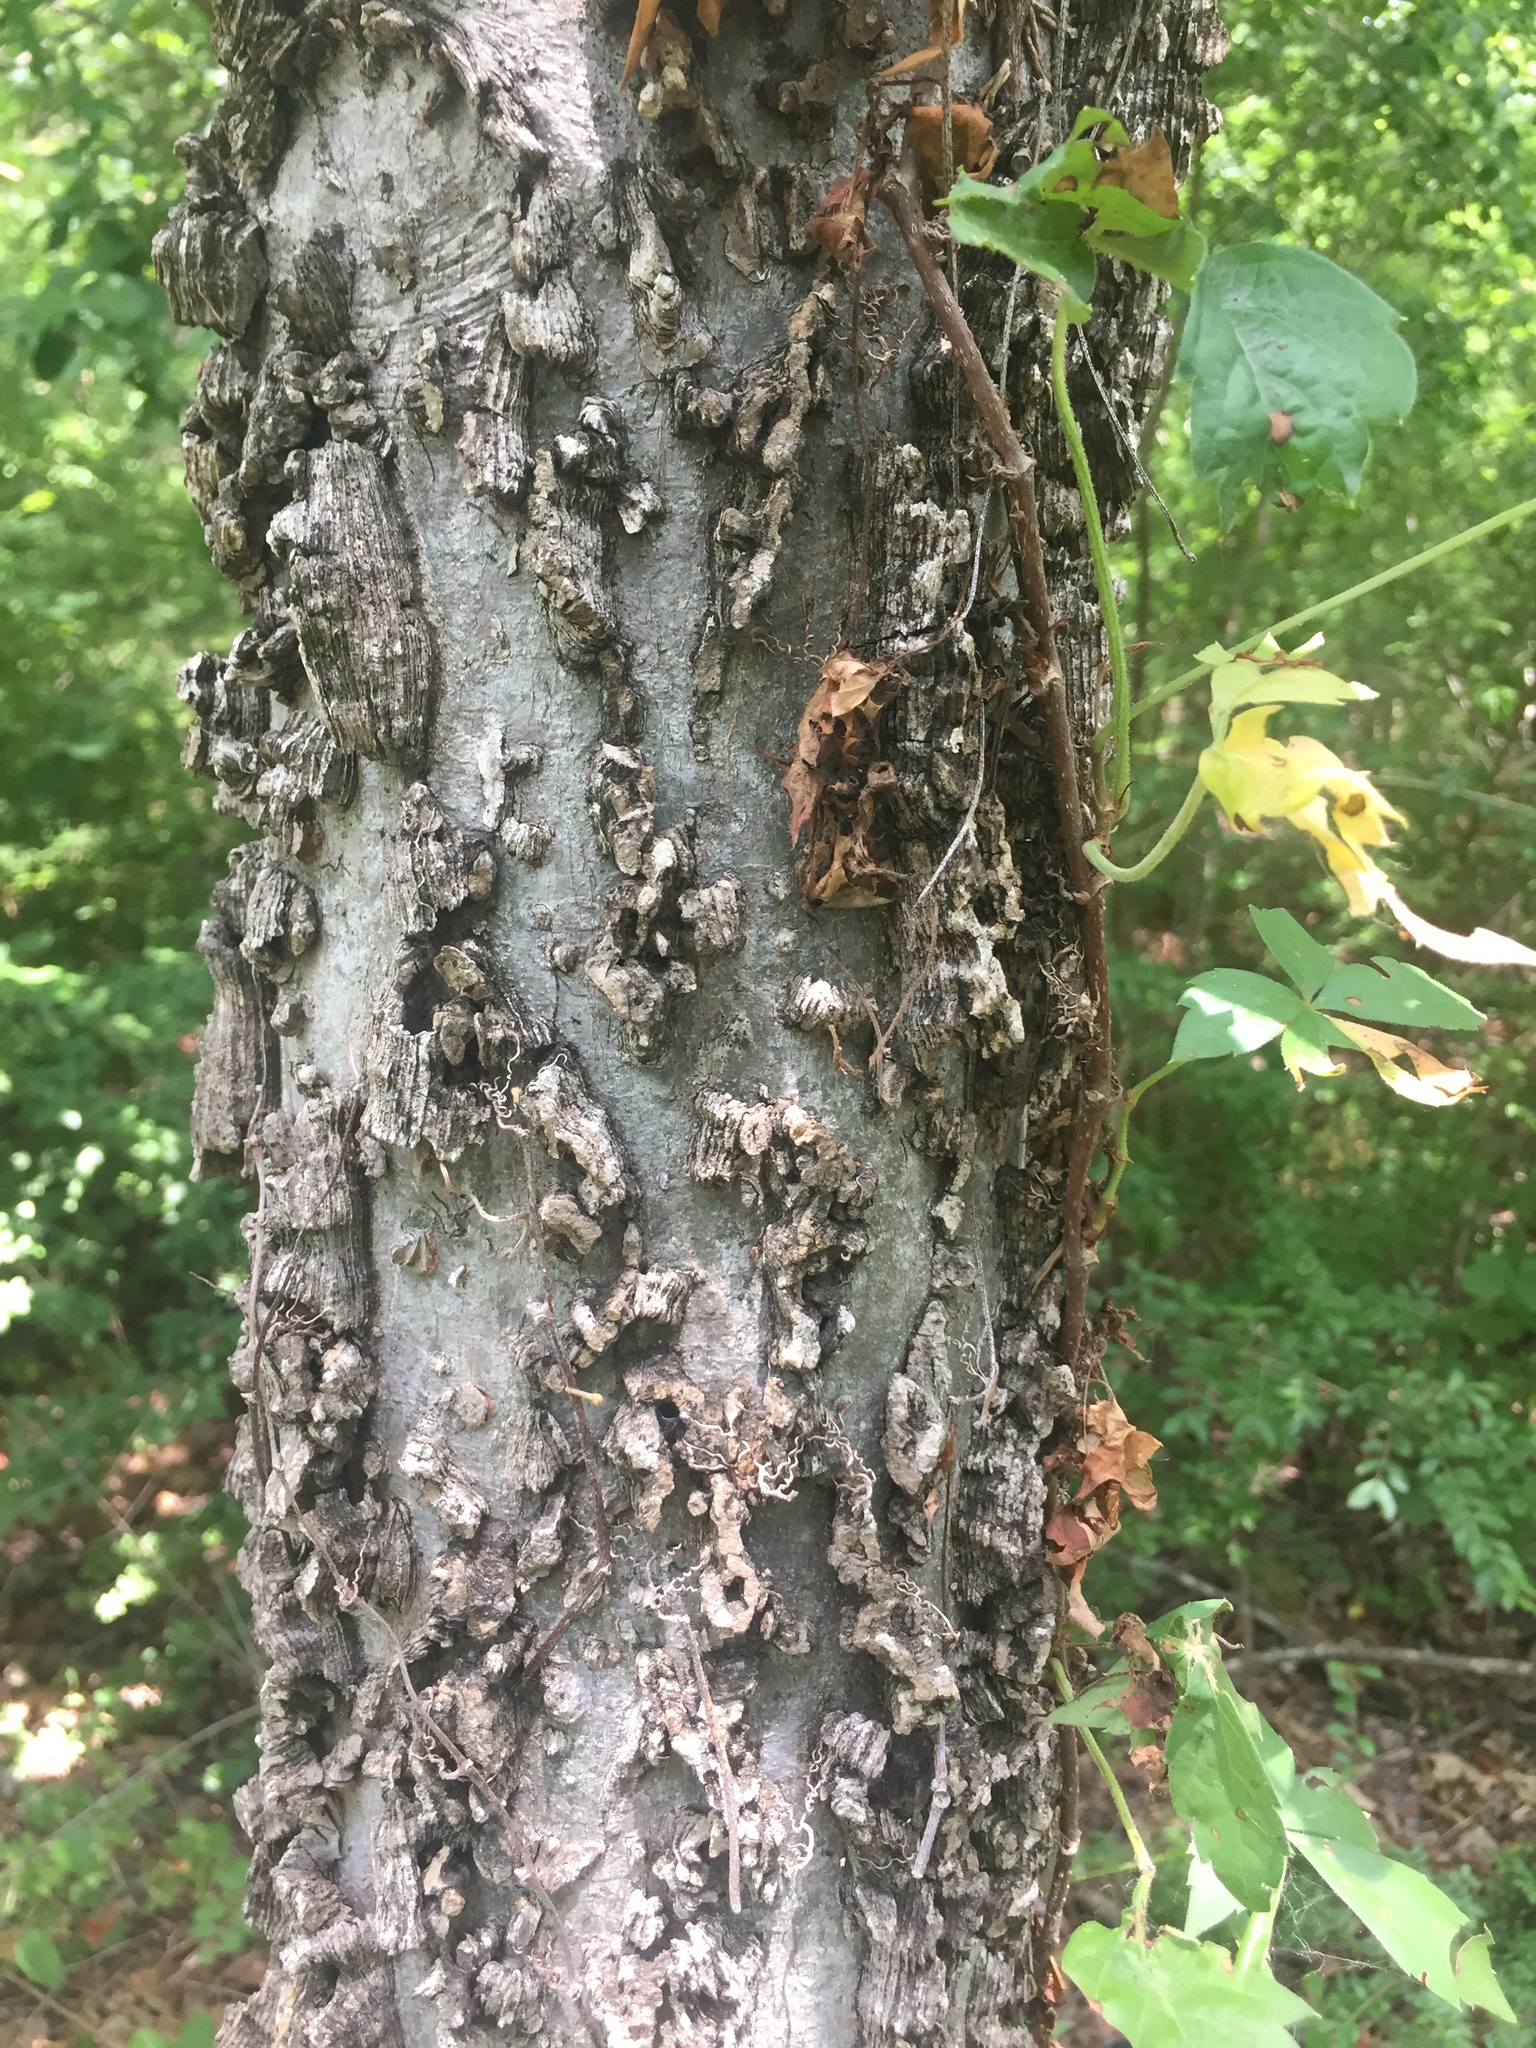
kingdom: Plantae
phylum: Tracheophyta
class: Magnoliopsida
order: Rosales
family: Cannabaceae
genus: Celtis
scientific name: Celtis laevigata
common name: Sugarberry
